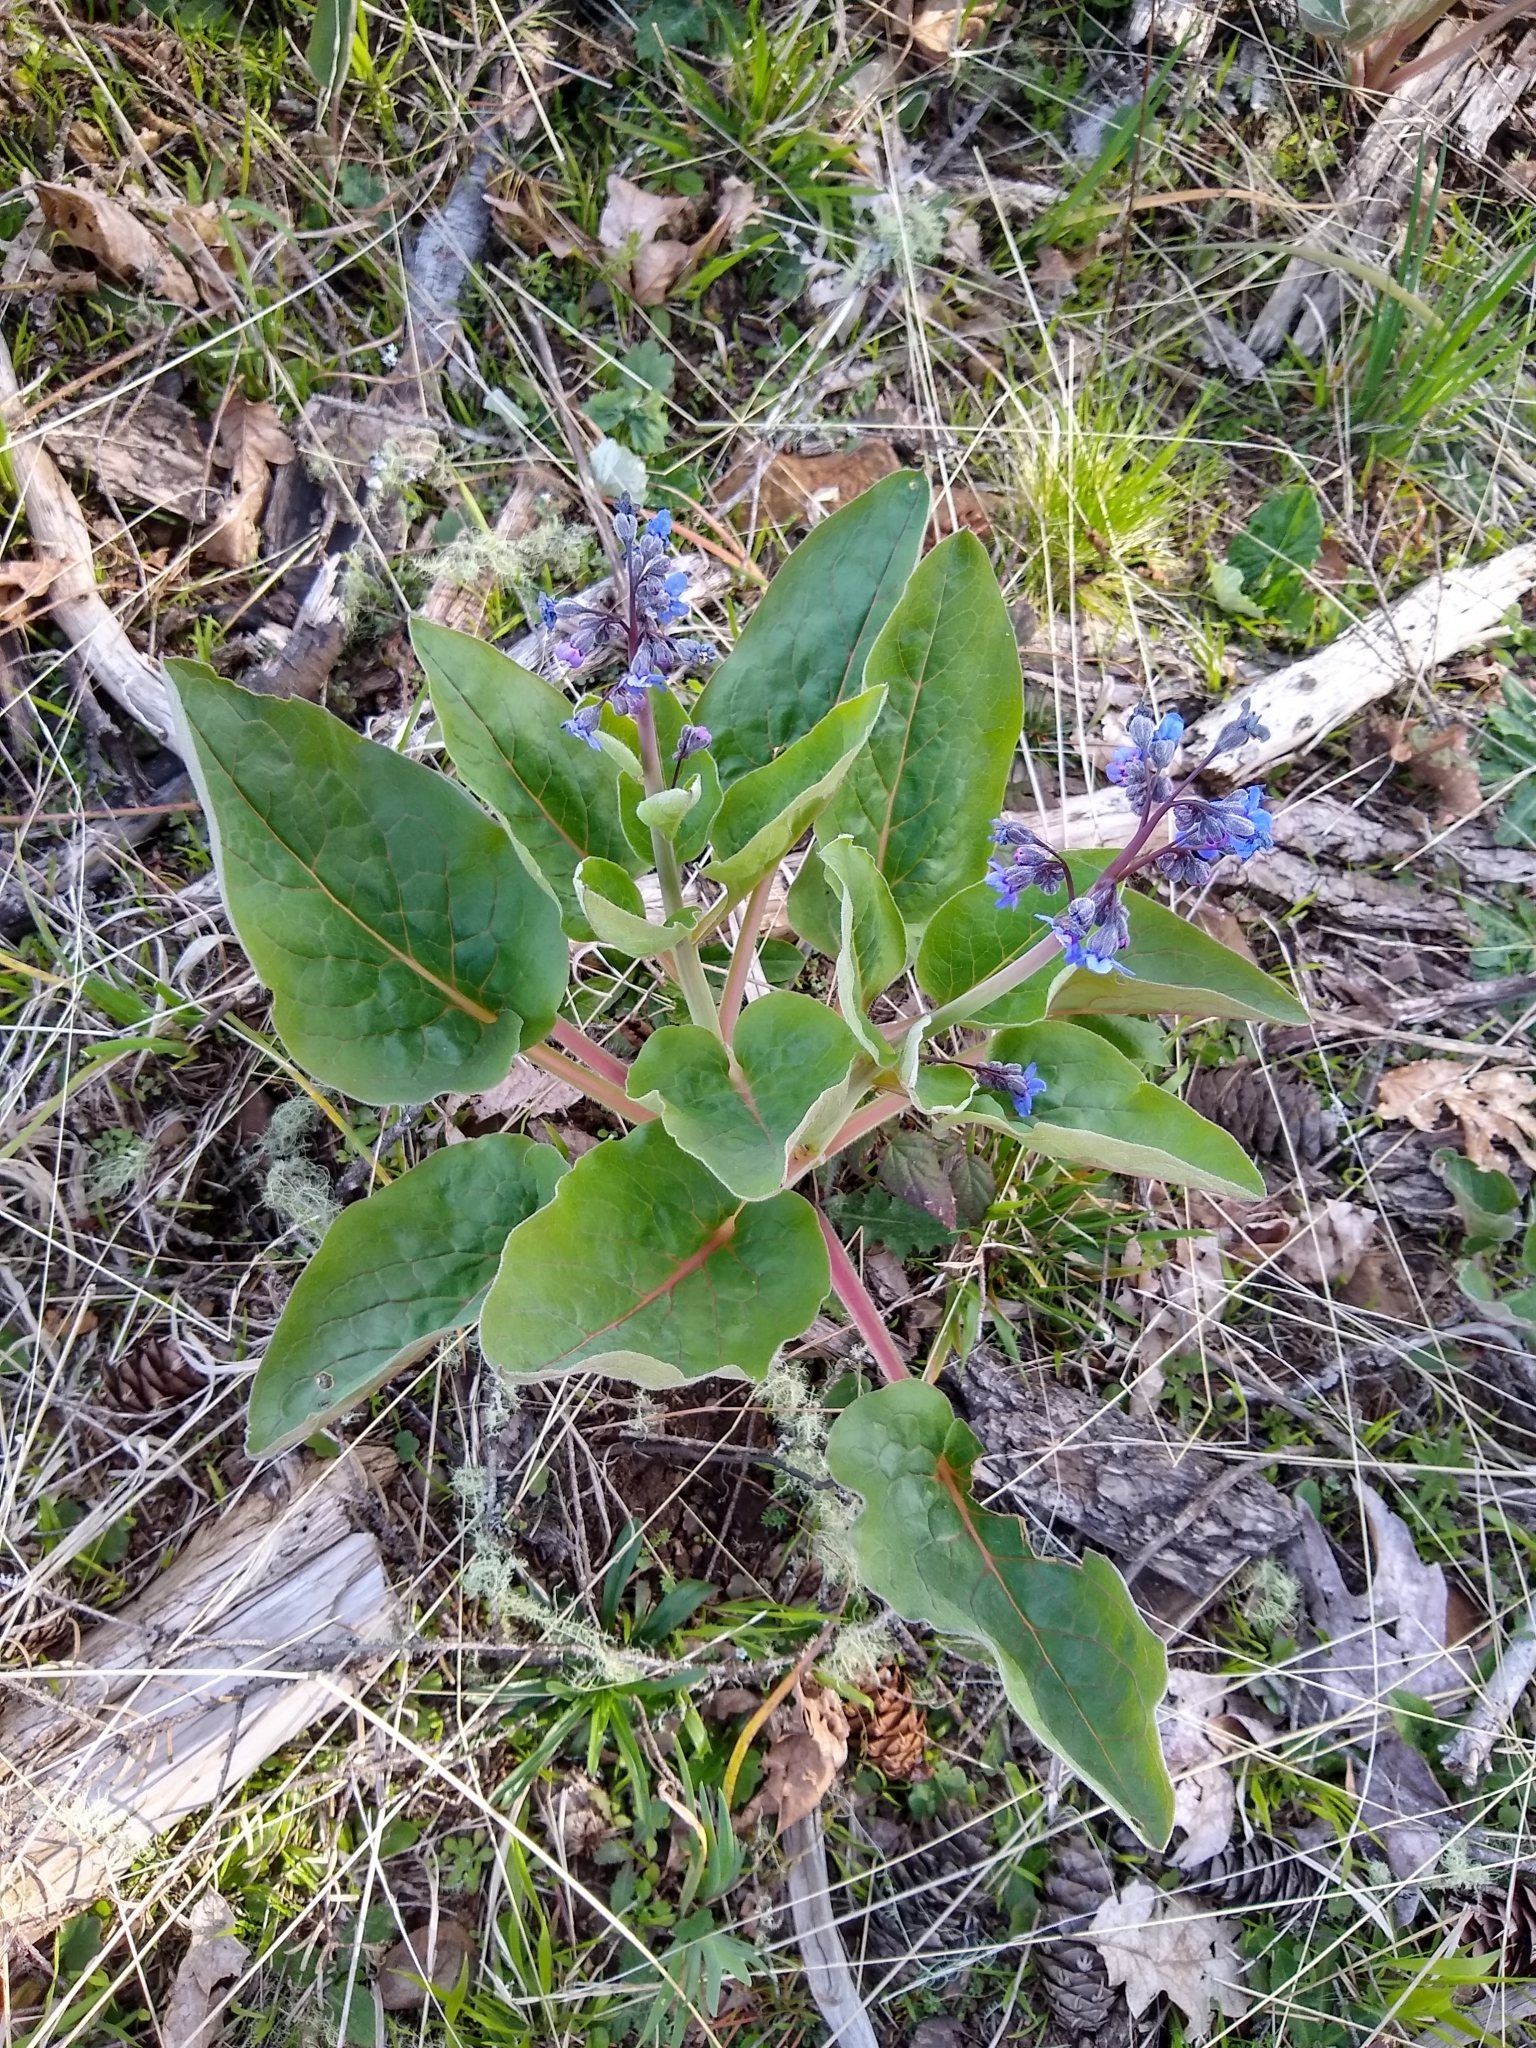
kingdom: Plantae
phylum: Tracheophyta
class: Magnoliopsida
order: Boraginales
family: Boraginaceae
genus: Adelinia
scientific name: Adelinia grande
